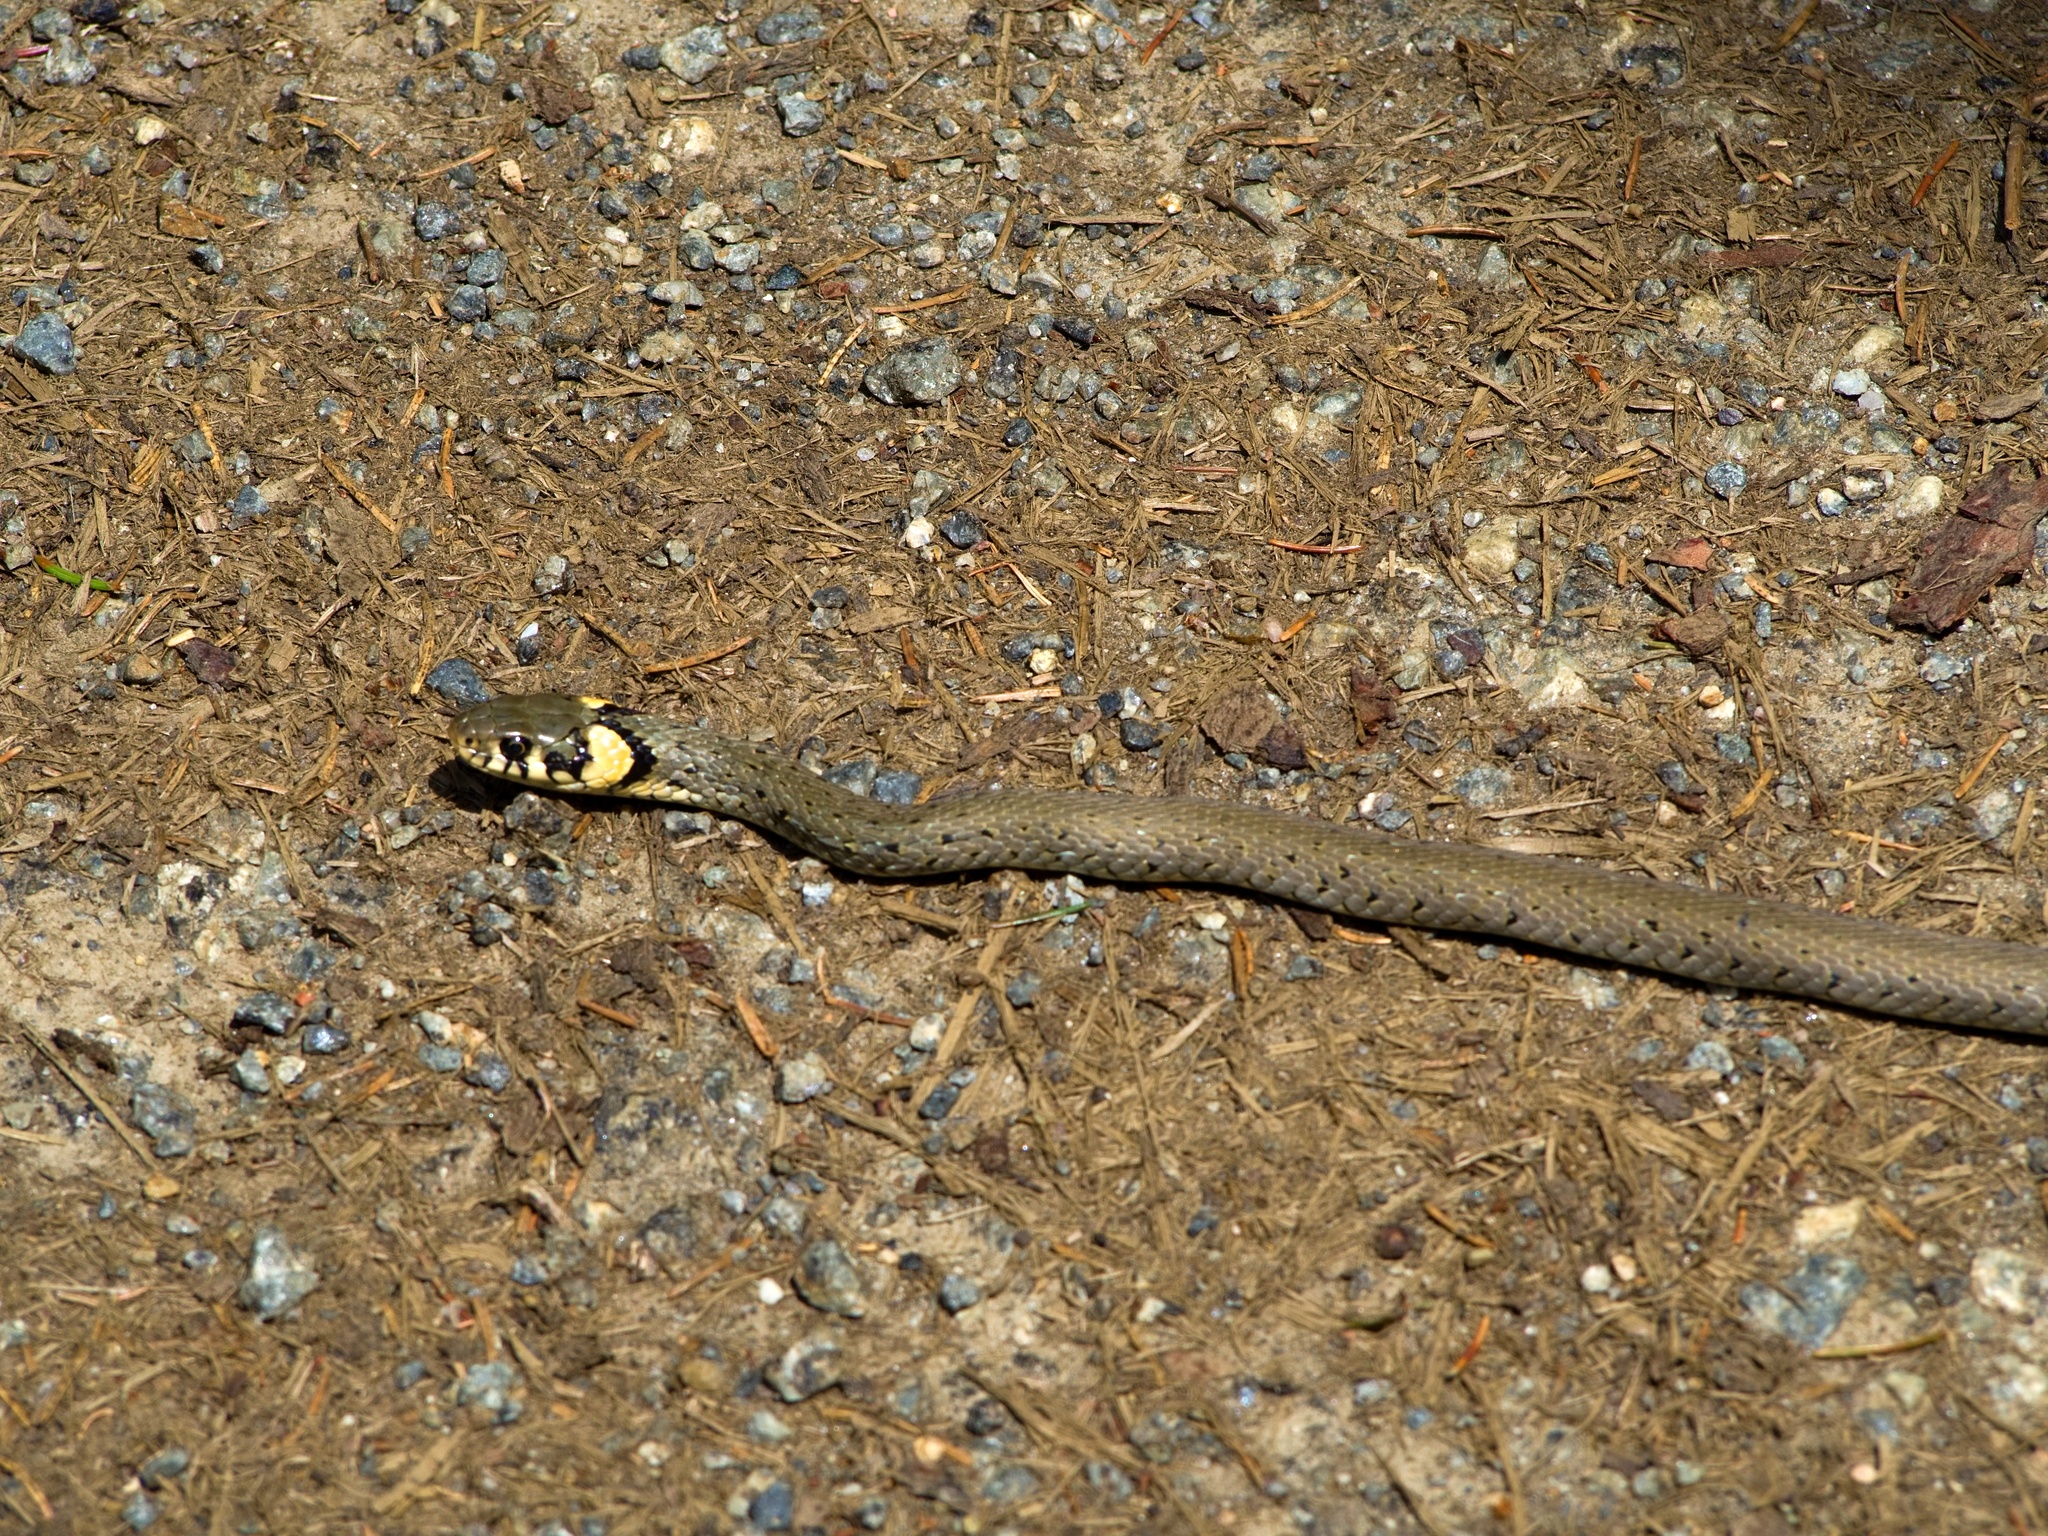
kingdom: Animalia
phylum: Chordata
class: Squamata
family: Colubridae
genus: Natrix
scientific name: Natrix natrix
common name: Grass snake
